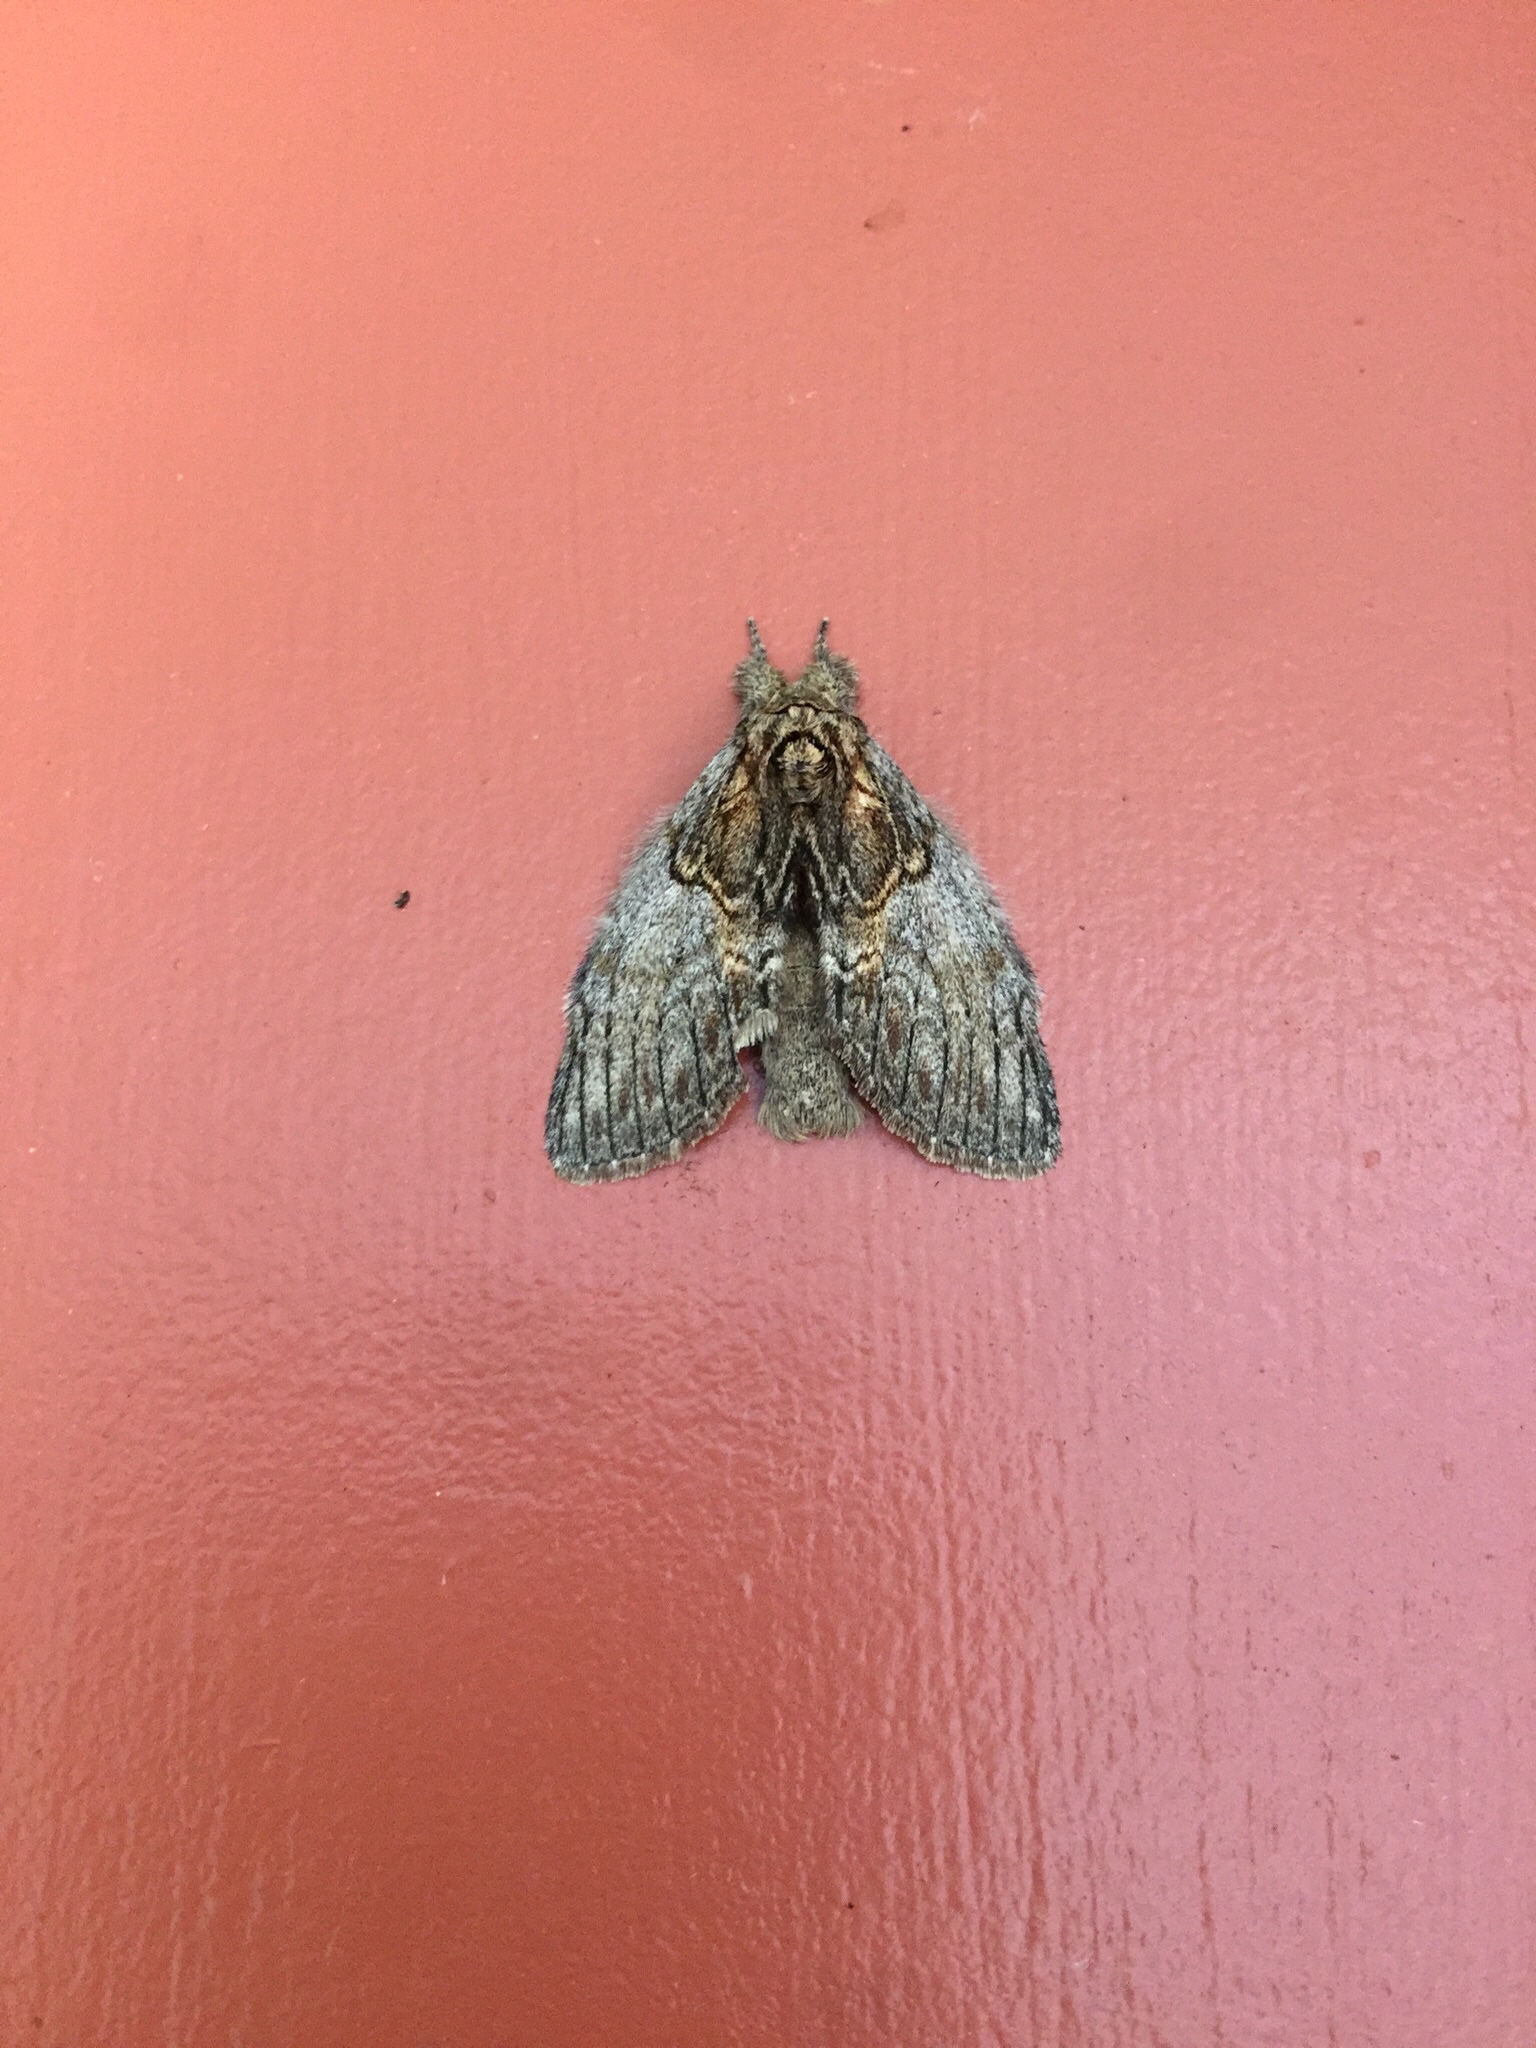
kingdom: Animalia
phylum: Arthropoda
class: Insecta
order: Lepidoptera
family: Notodontidae
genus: Peridea
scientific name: Peridea basitriens
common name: Oval-based prominent
